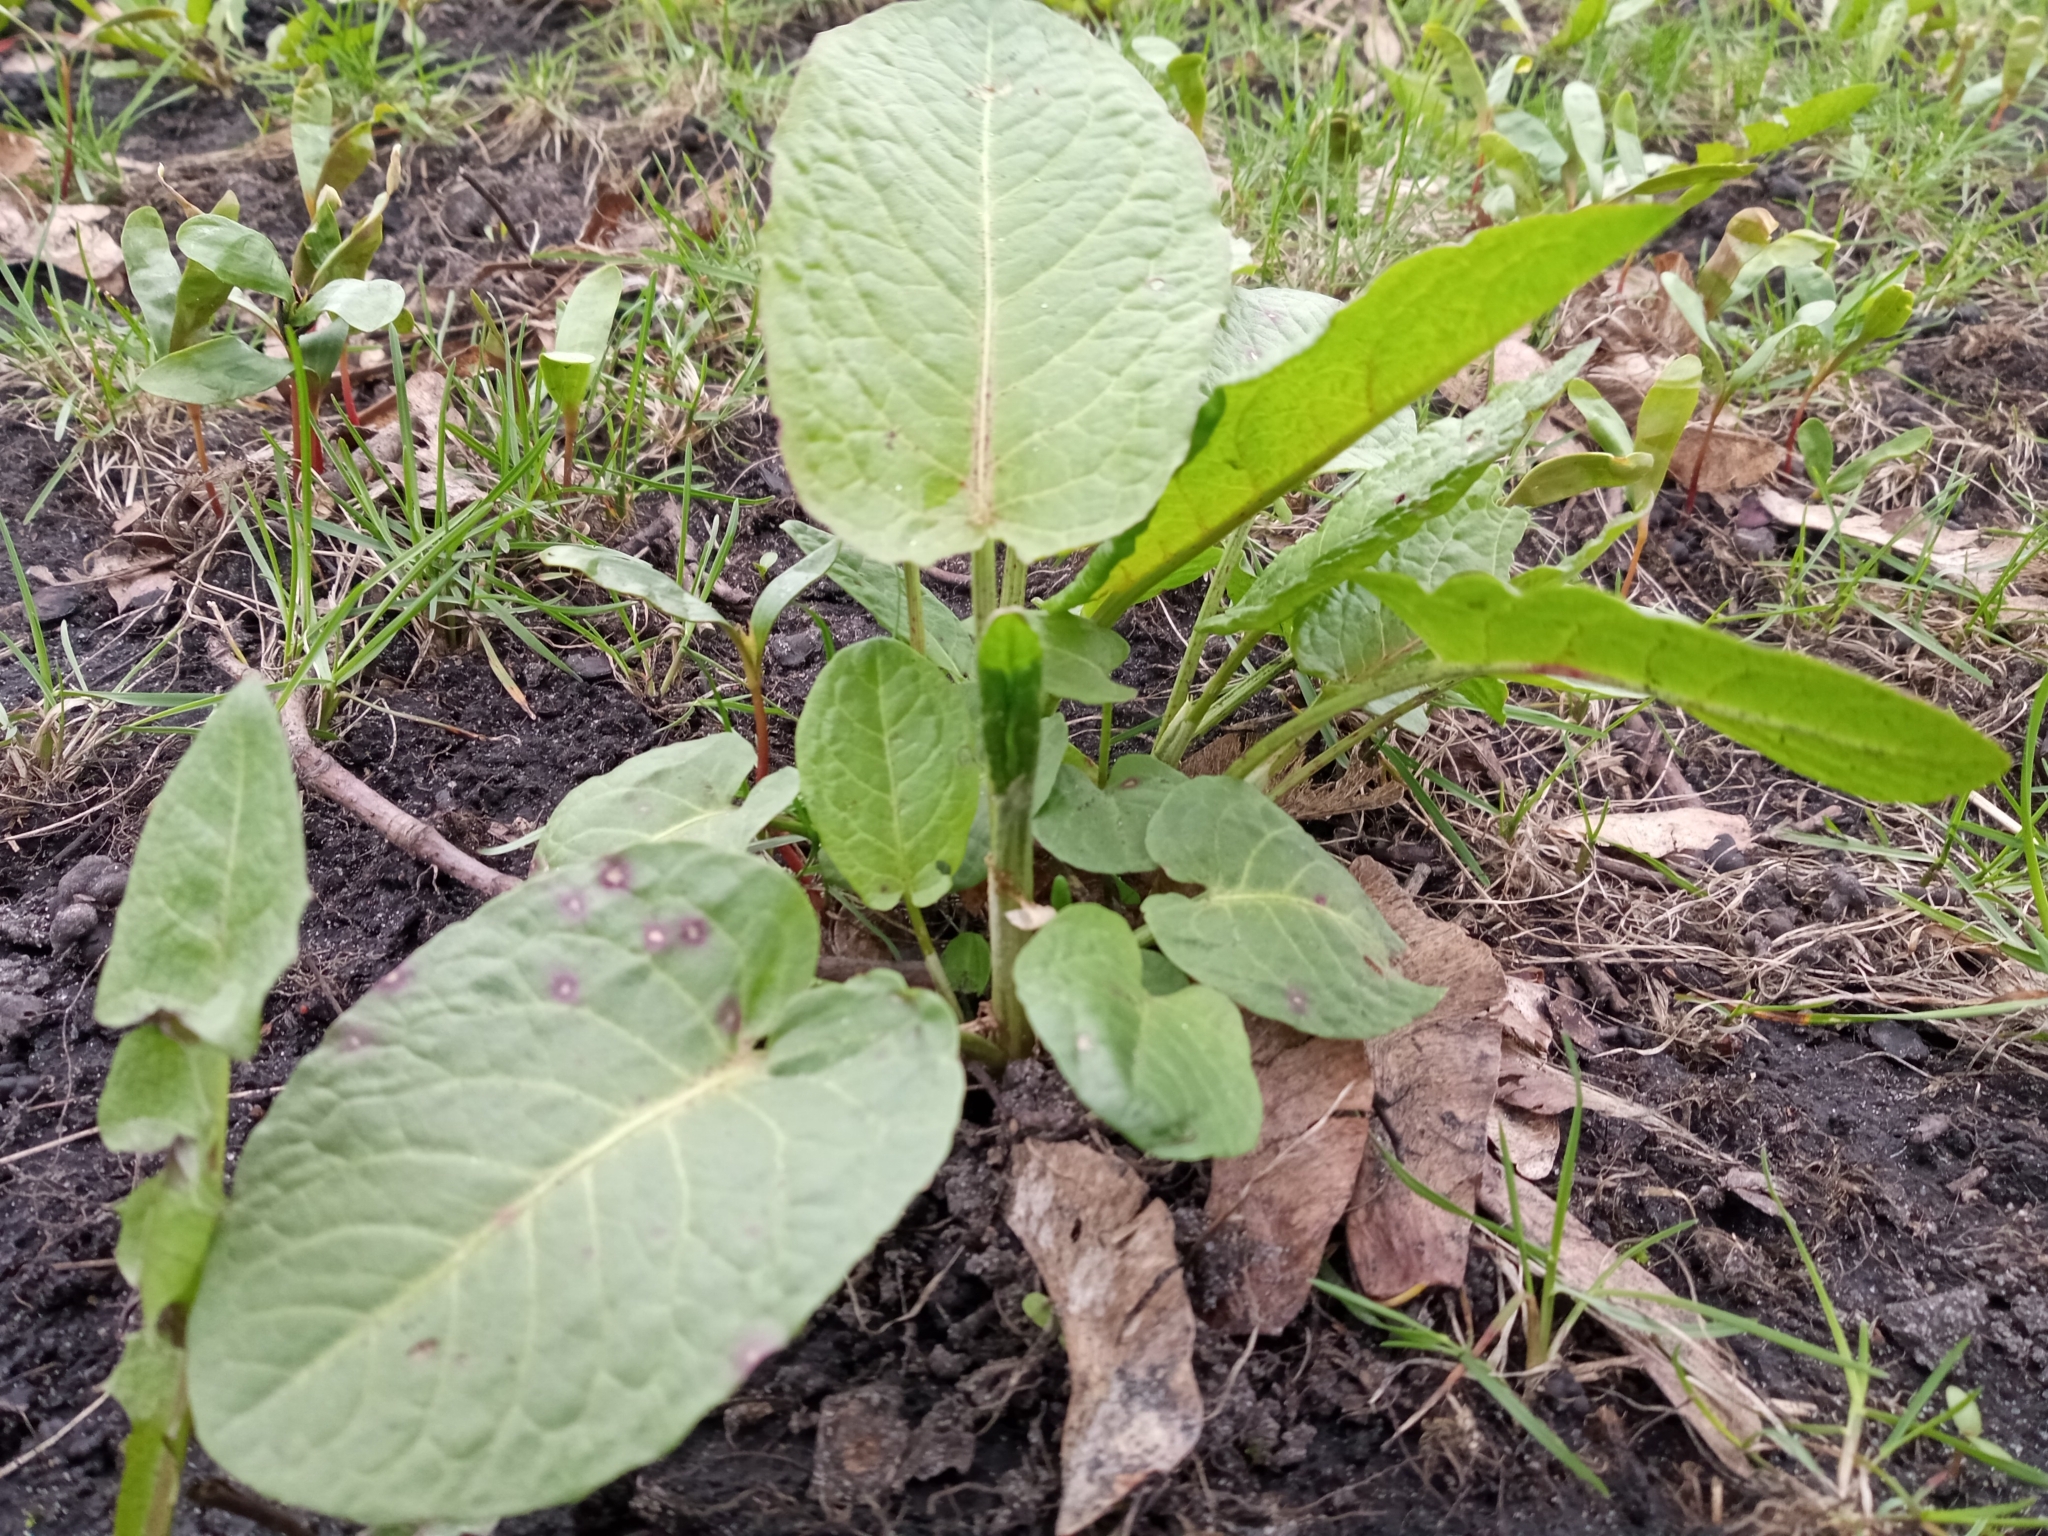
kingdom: Plantae
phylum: Tracheophyta
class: Magnoliopsida
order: Caryophyllales
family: Polygonaceae
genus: Rumex
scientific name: Rumex obtusifolius
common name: Bitter dock
